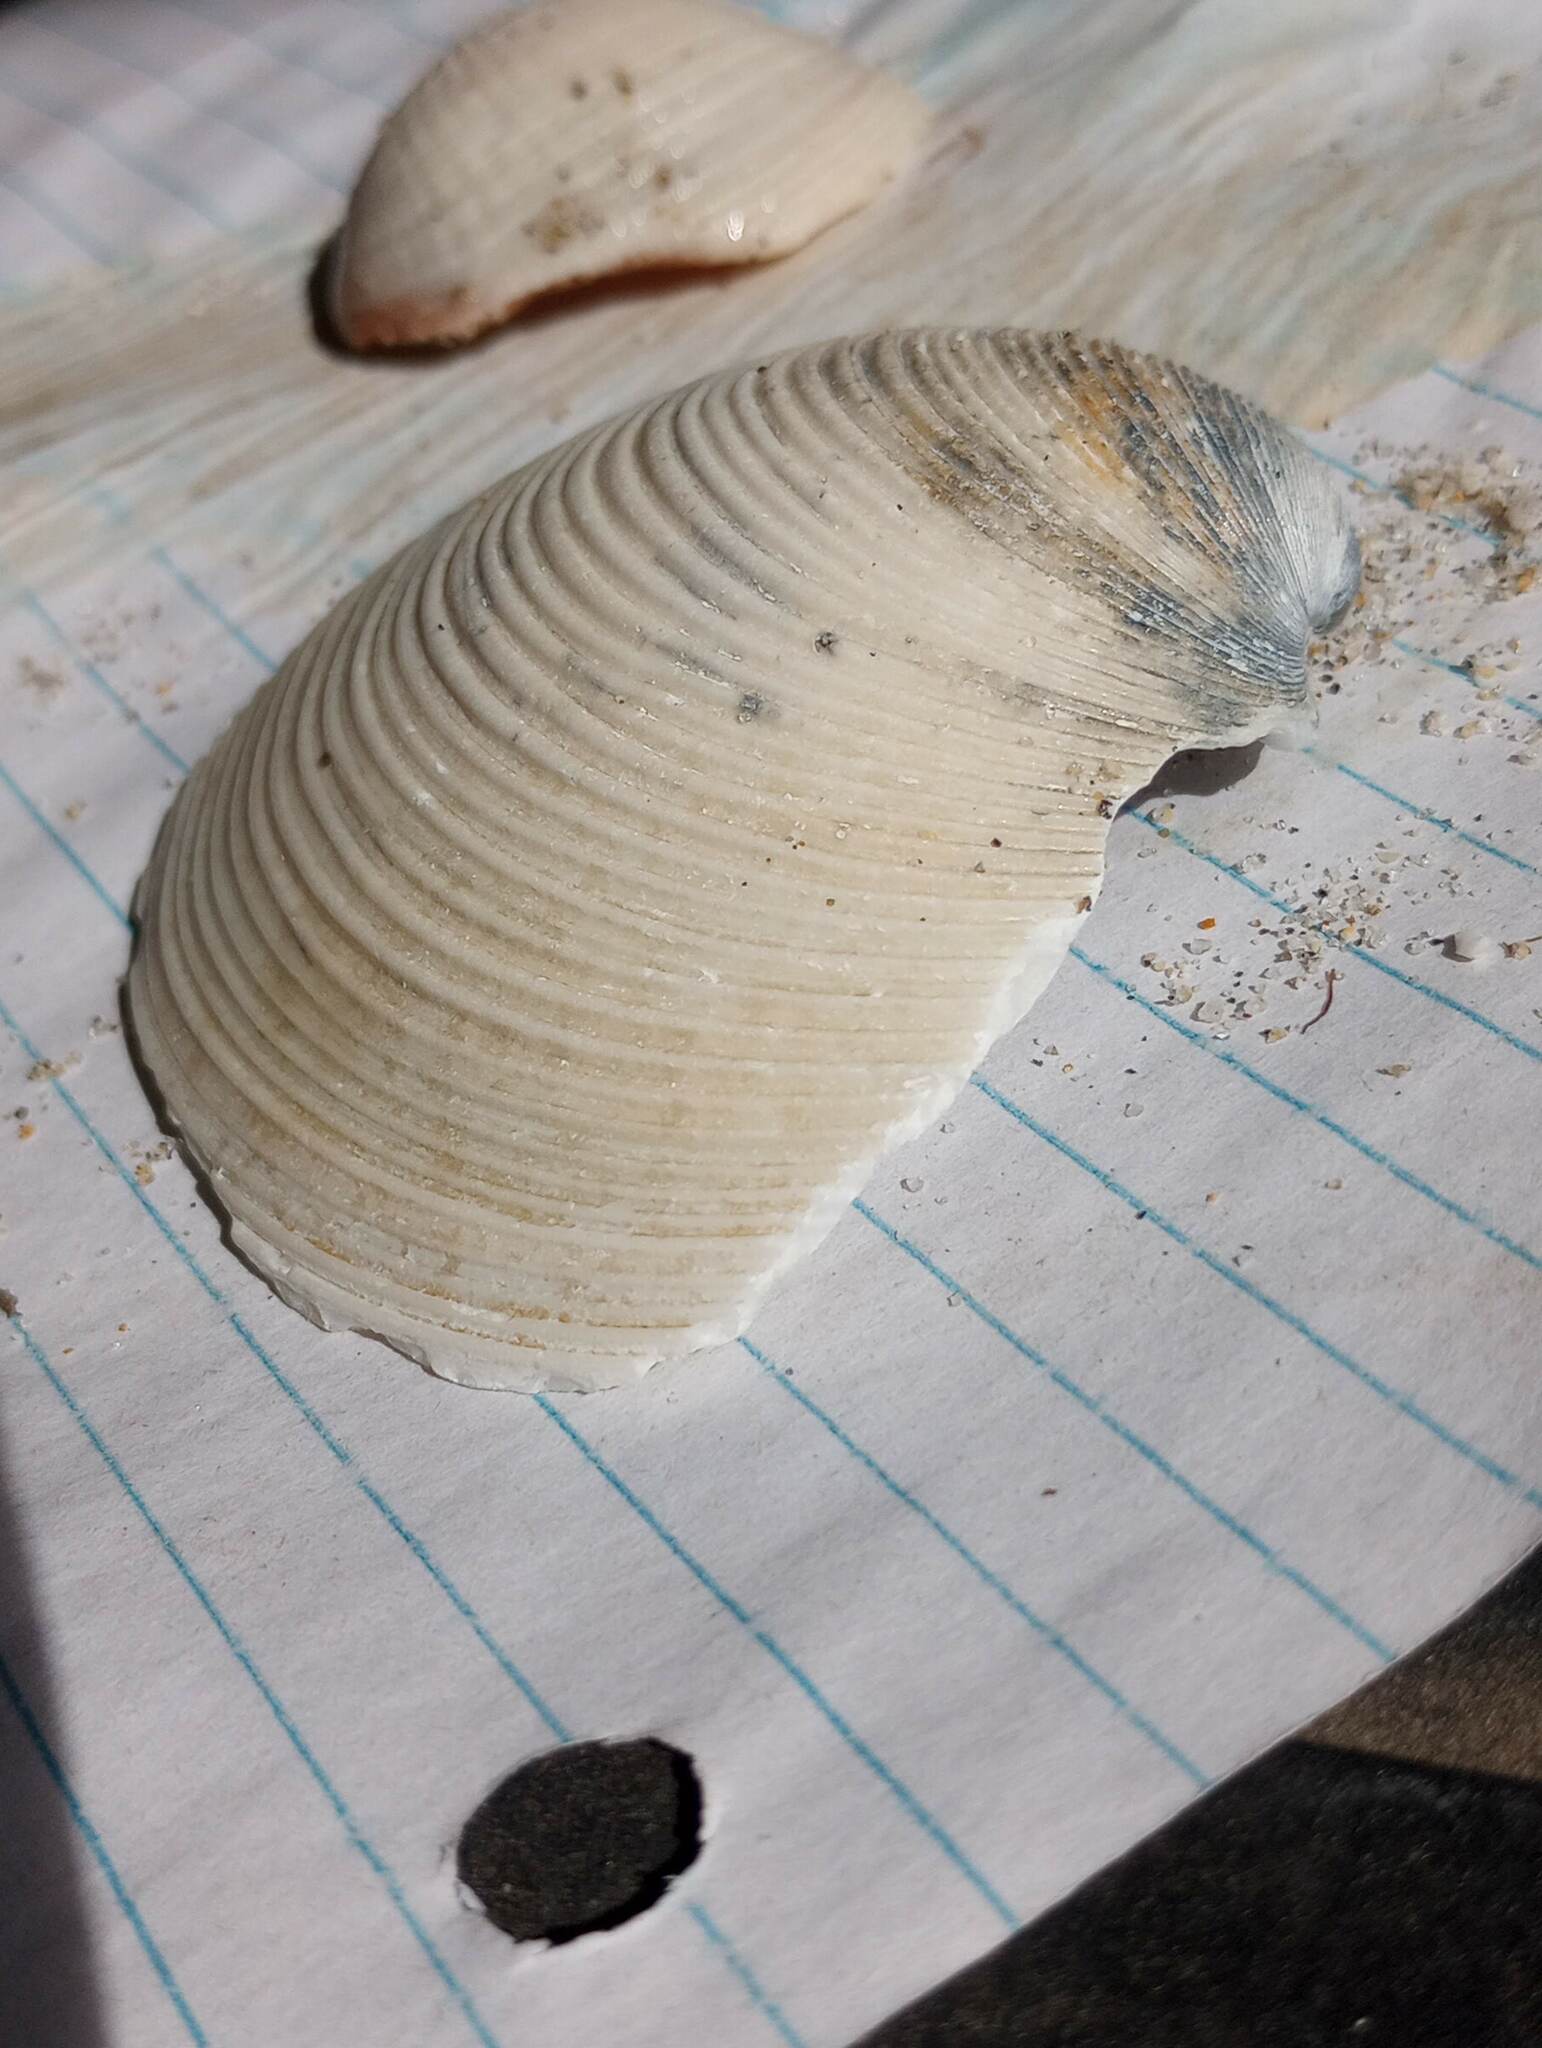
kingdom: Animalia
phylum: Mollusca
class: Bivalvia
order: Venerida
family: Veneridae
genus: Amiantis
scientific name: Amiantis callosa
